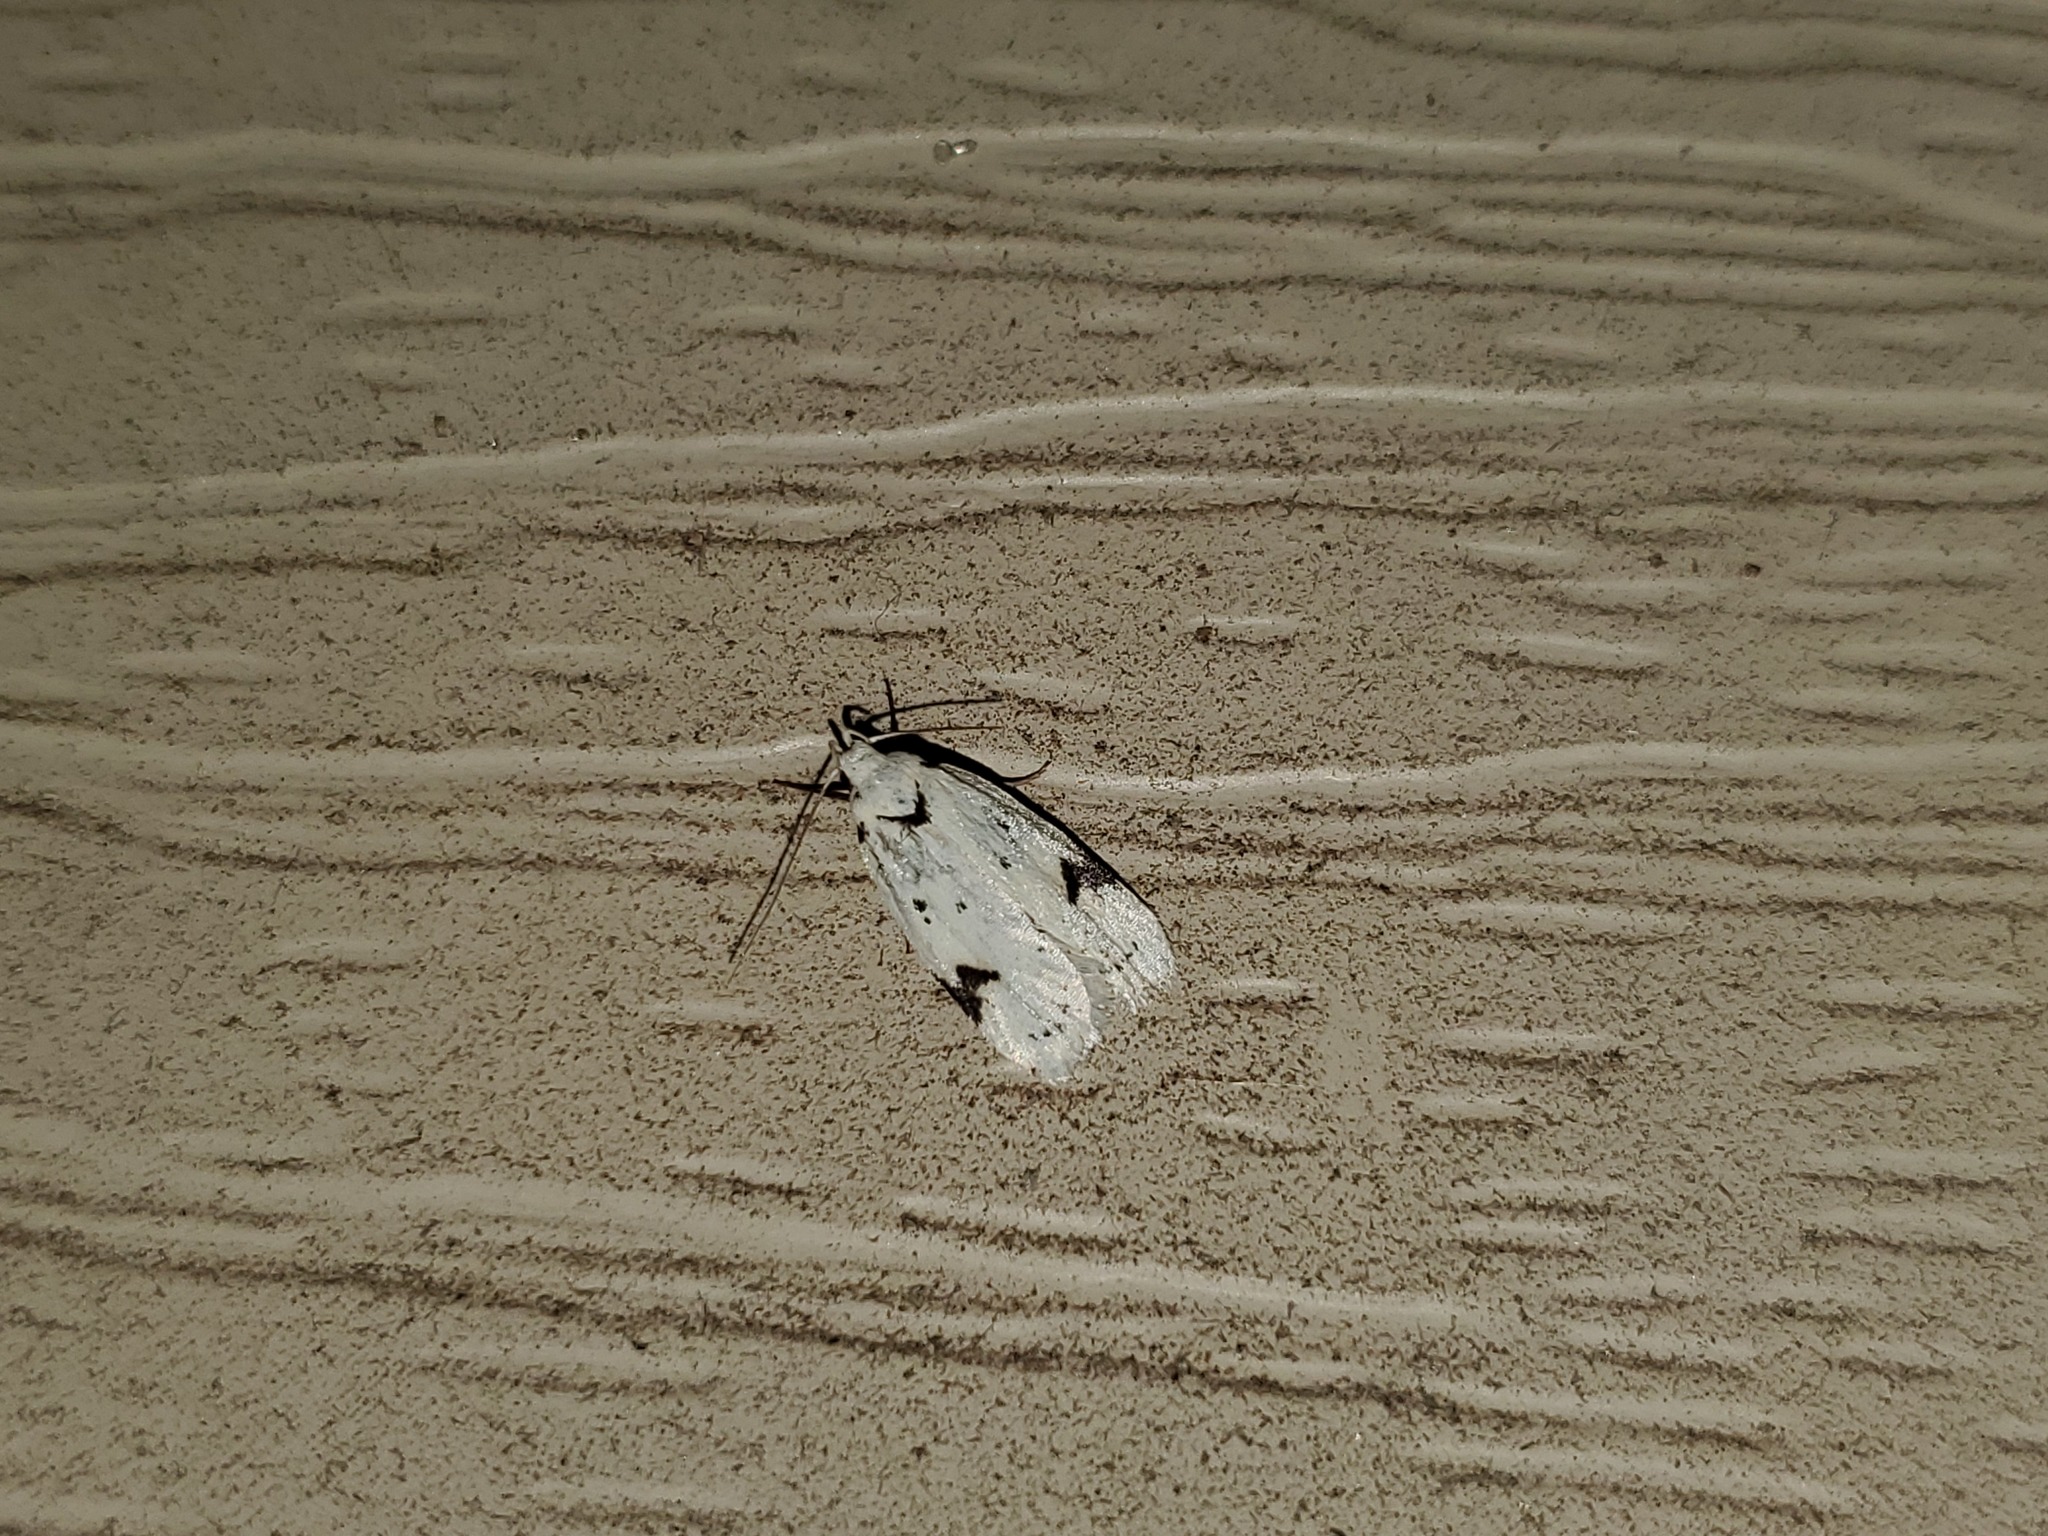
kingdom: Animalia
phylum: Arthropoda
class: Insecta
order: Lepidoptera
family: Oecophoridae
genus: Inga
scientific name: Inga sparsiciliella
